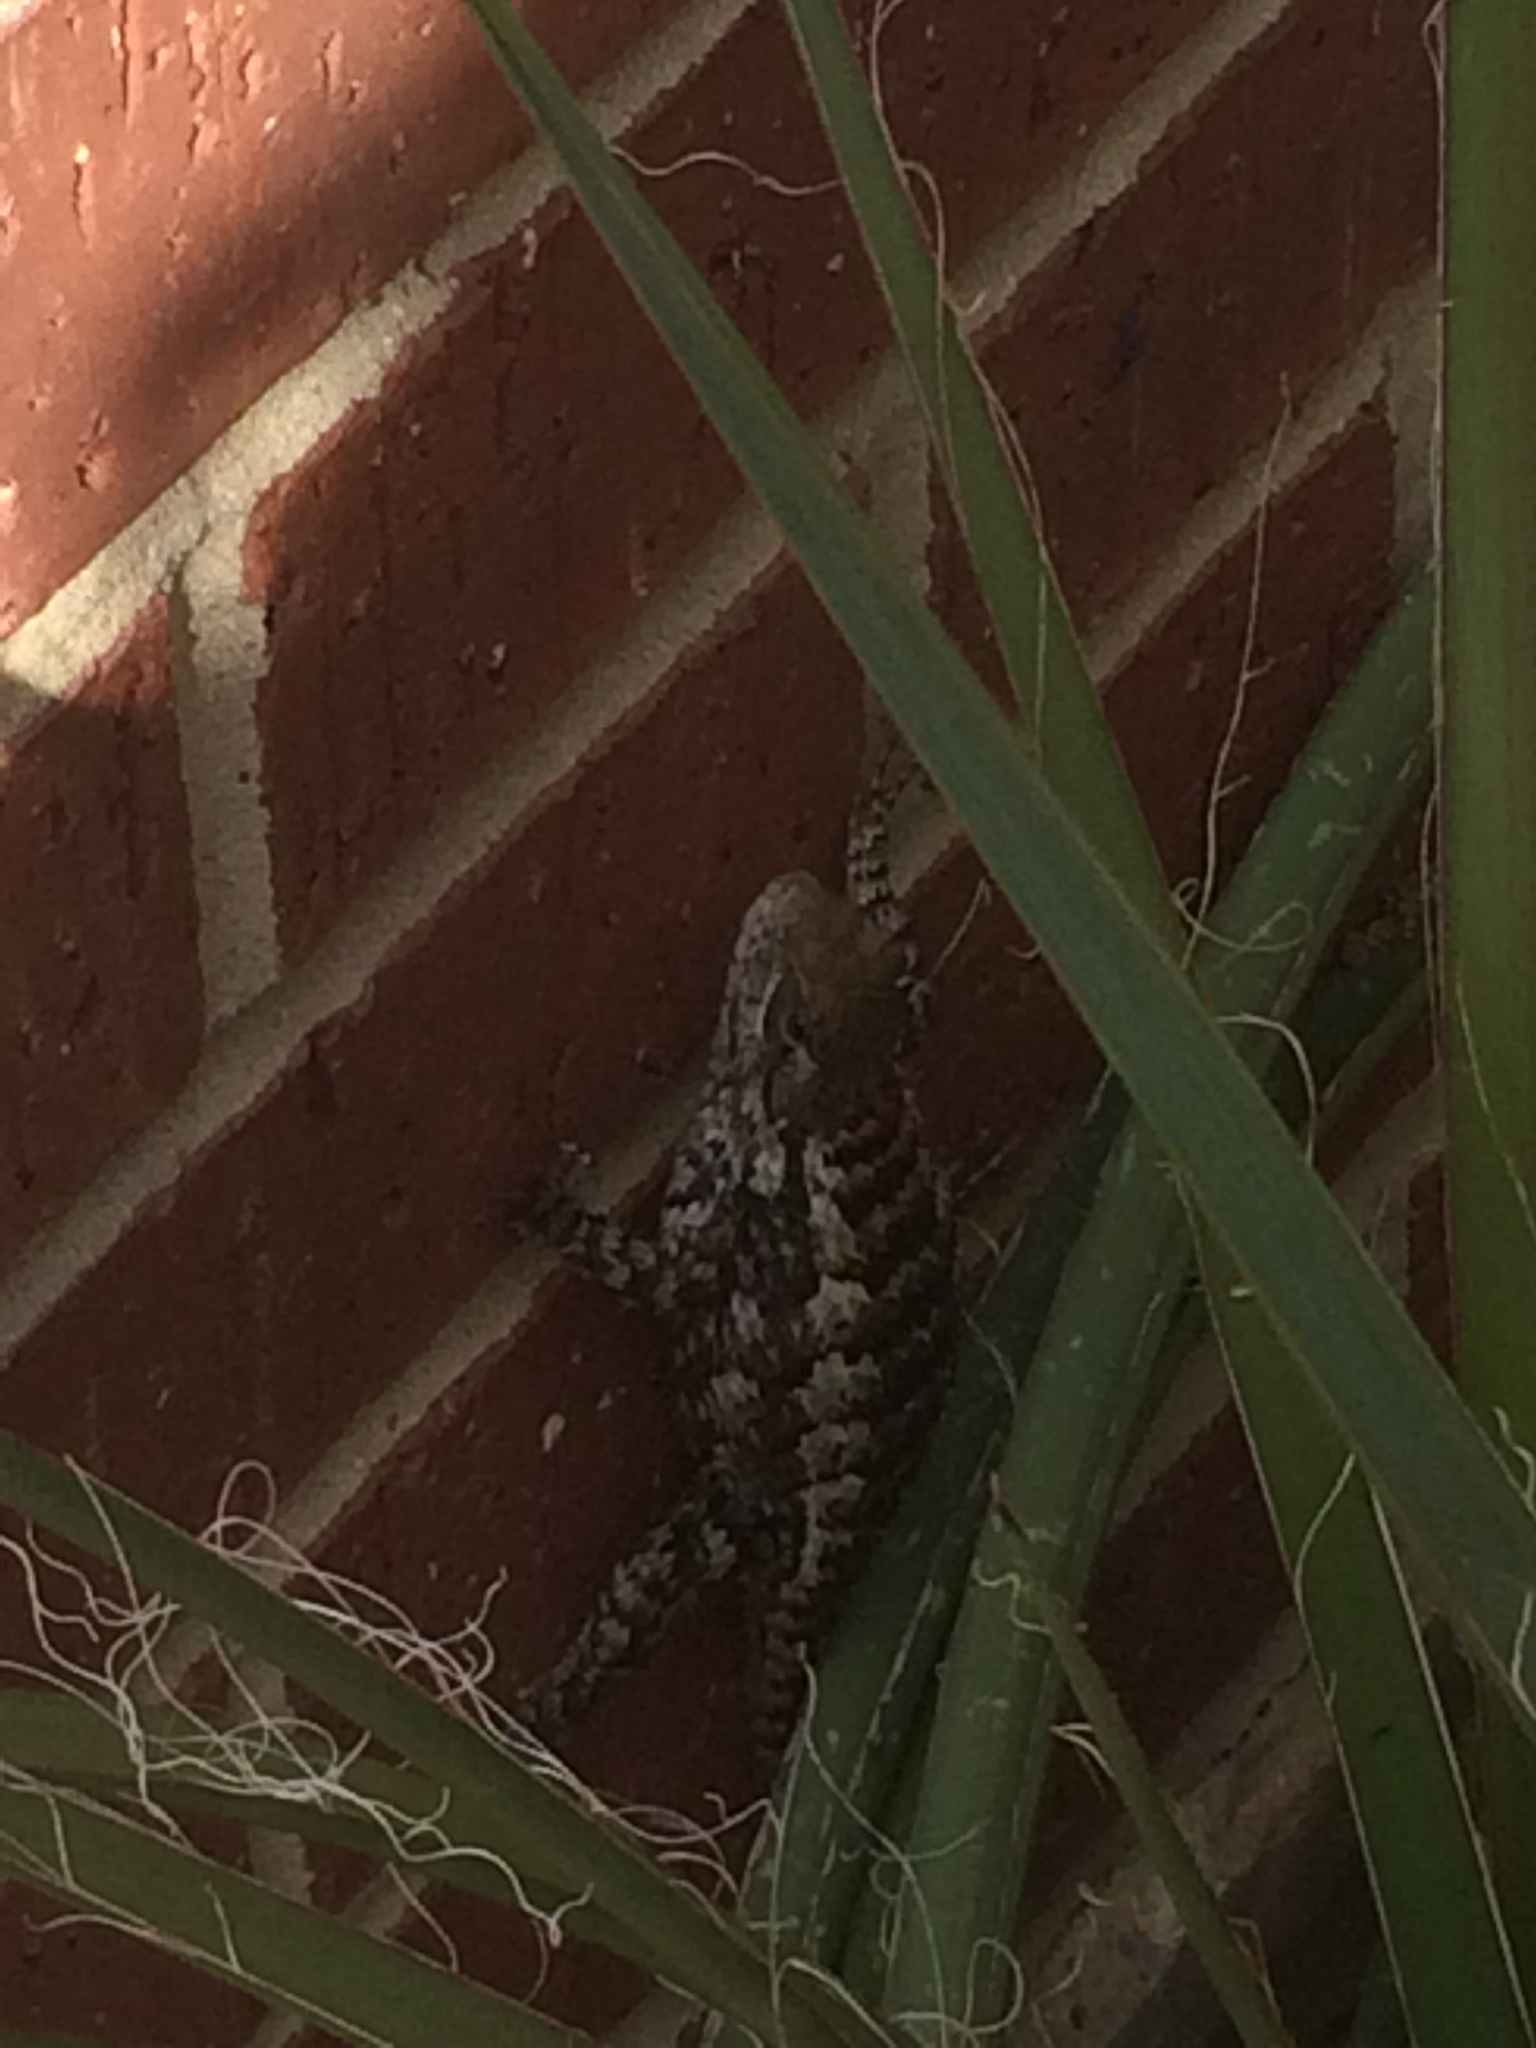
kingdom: Animalia
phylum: Chordata
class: Squamata
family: Phrynosomatidae
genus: Sceloporus
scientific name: Sceloporus olivaceus
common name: Texas spiny lizard
